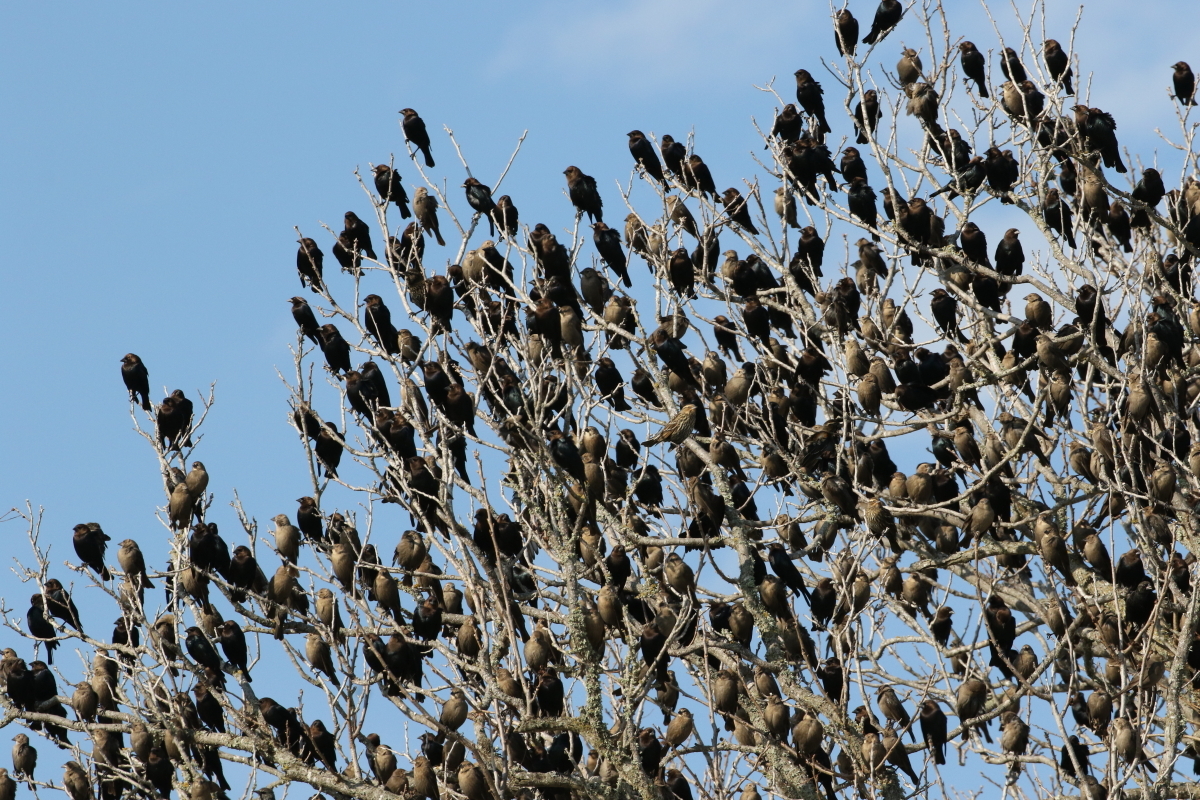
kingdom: Animalia
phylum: Chordata
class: Aves
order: Passeriformes
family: Icteridae
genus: Molothrus
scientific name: Molothrus ater
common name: Brown-headed cowbird
